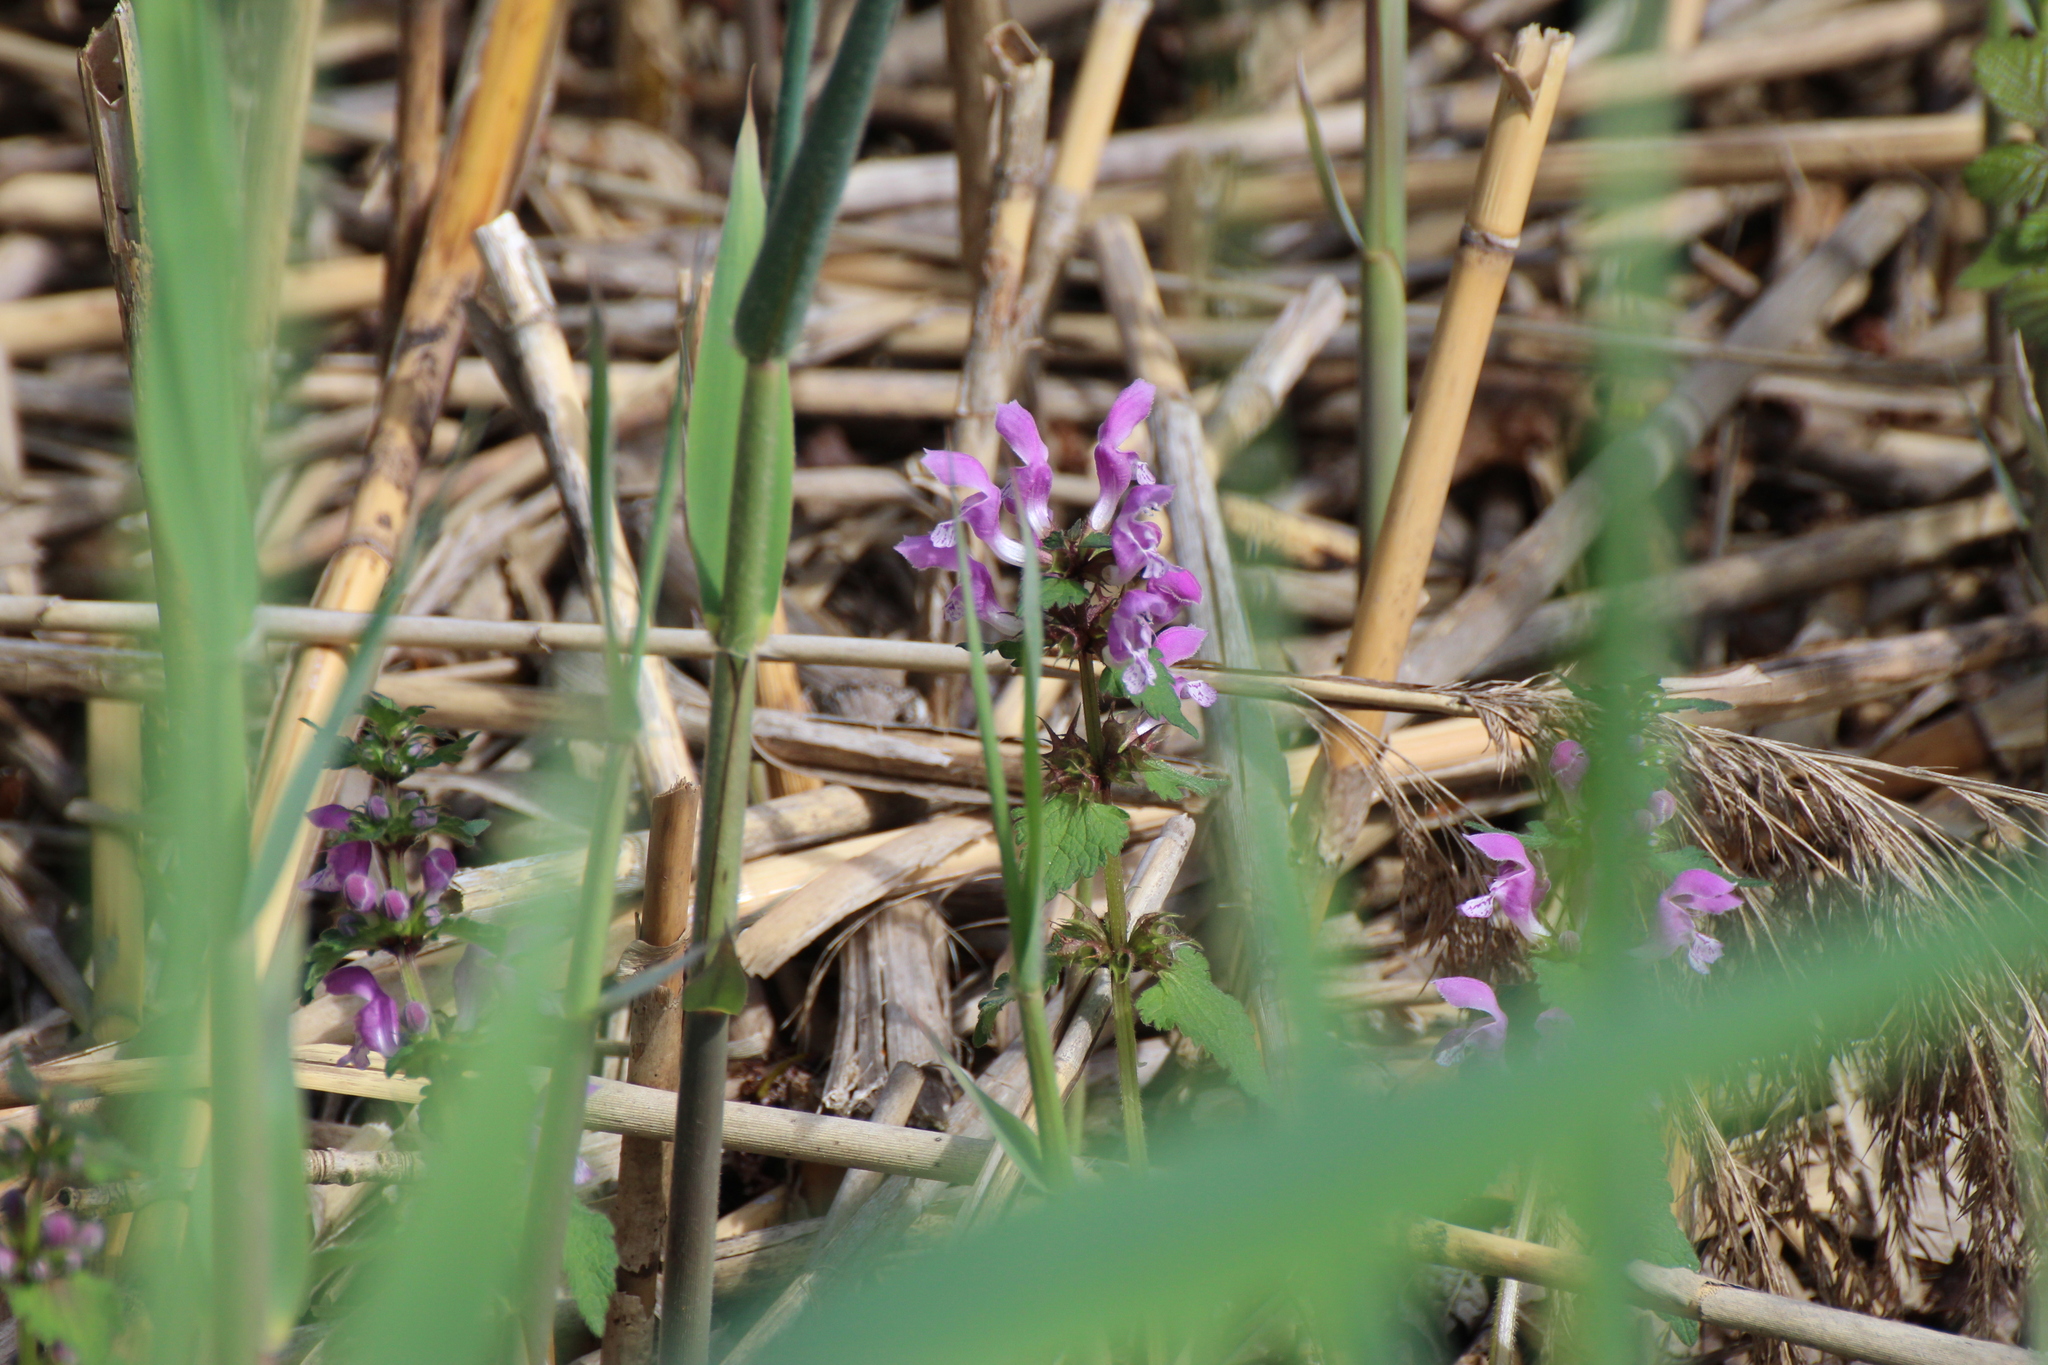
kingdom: Plantae
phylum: Tracheophyta
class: Magnoliopsida
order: Lamiales
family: Lamiaceae
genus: Lamium
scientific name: Lamium maculatum
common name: Spotted dead-nettle
